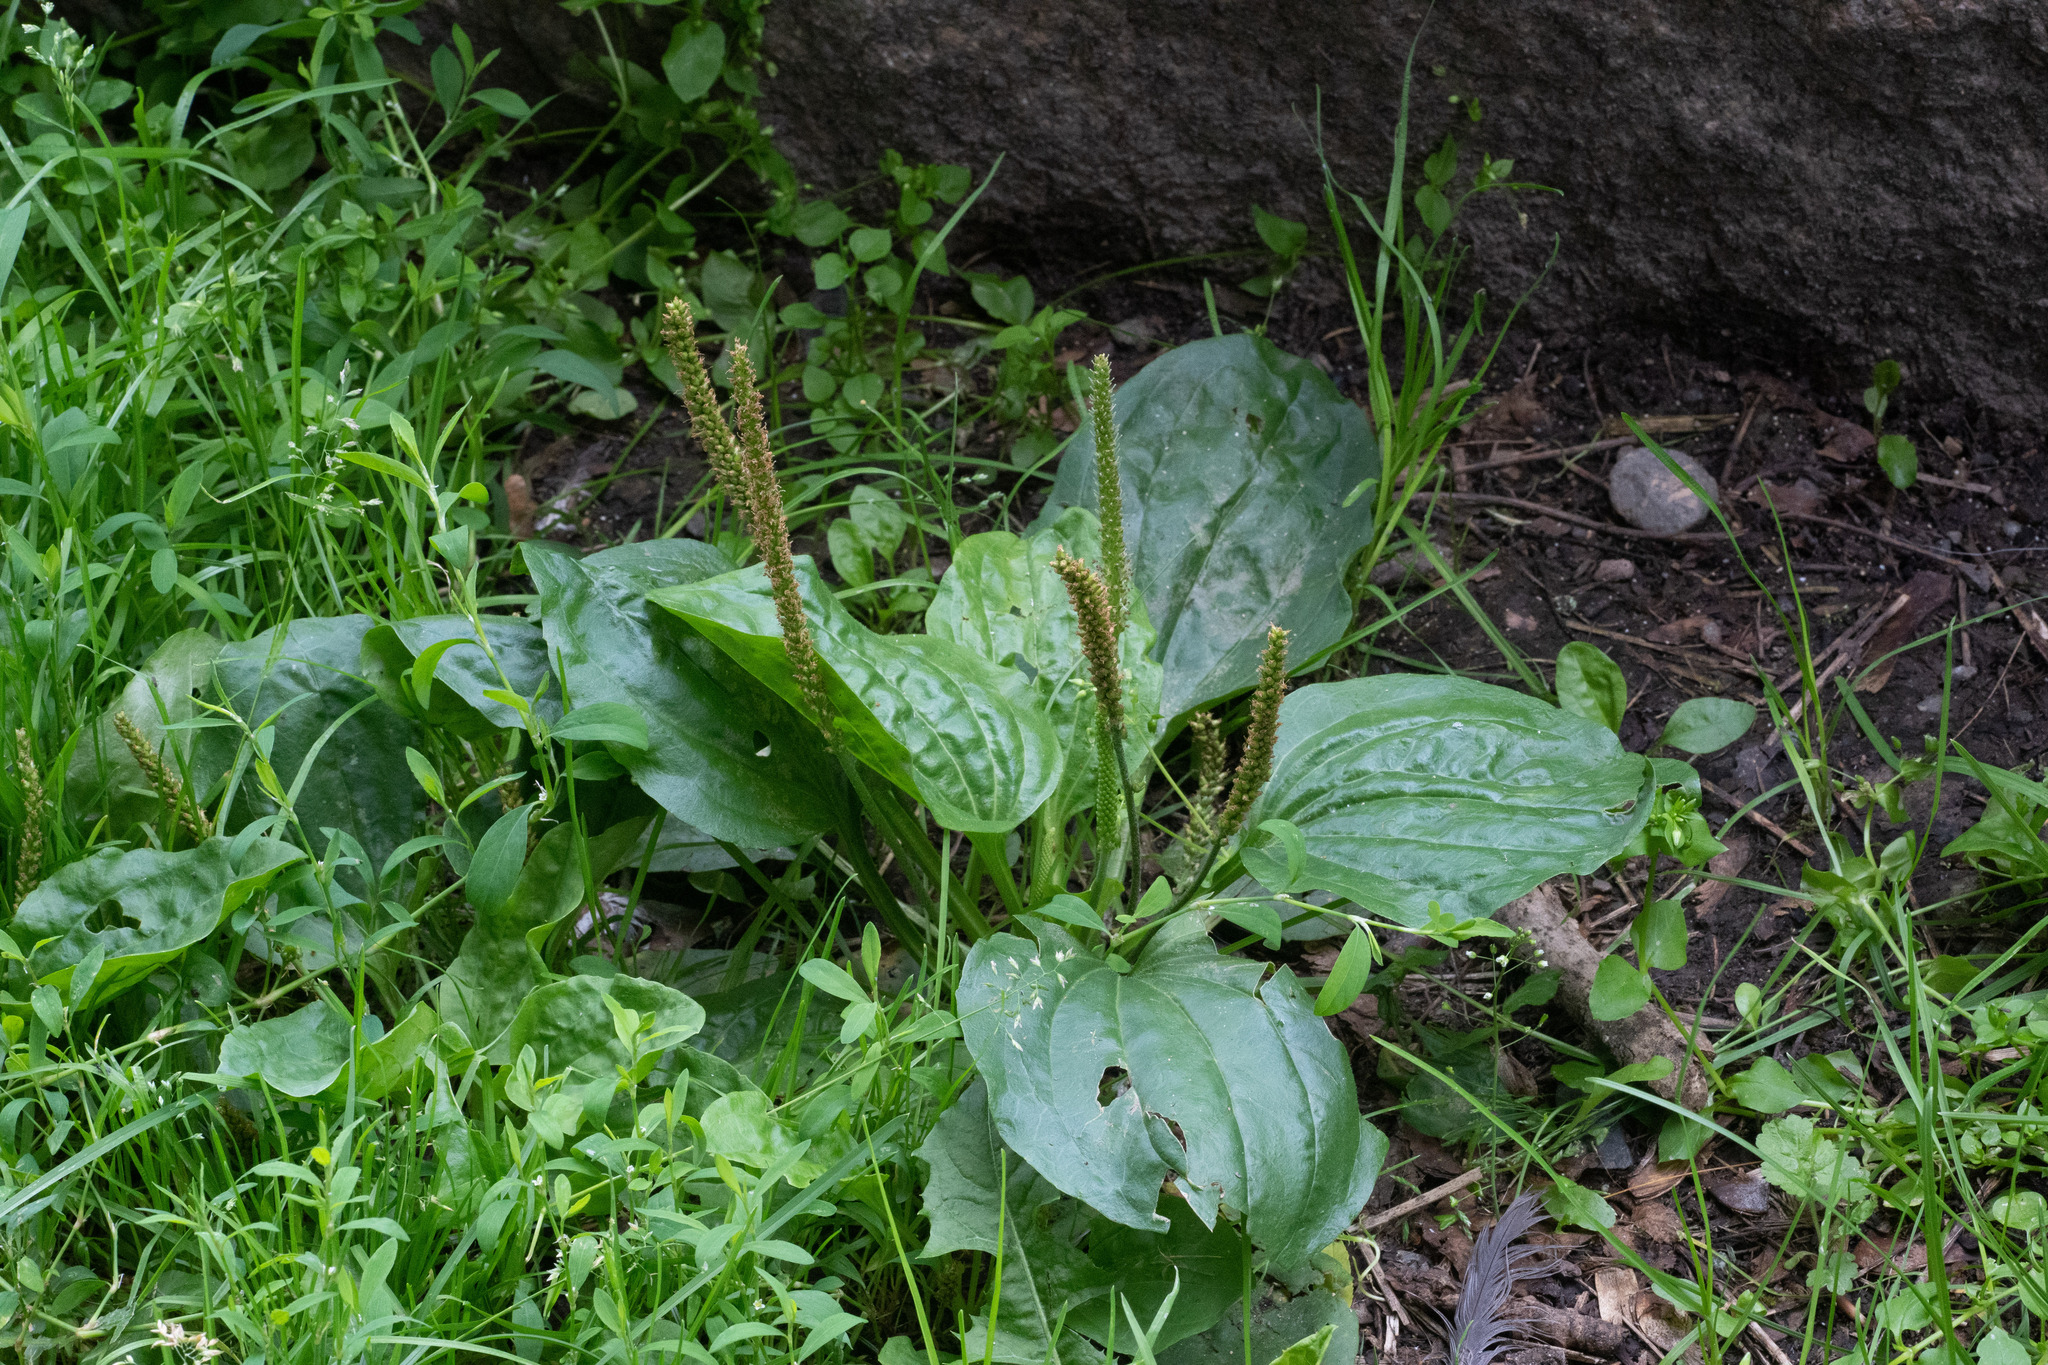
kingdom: Plantae
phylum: Tracheophyta
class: Magnoliopsida
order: Lamiales
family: Plantaginaceae
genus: Plantago
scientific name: Plantago major
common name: Common plantain
